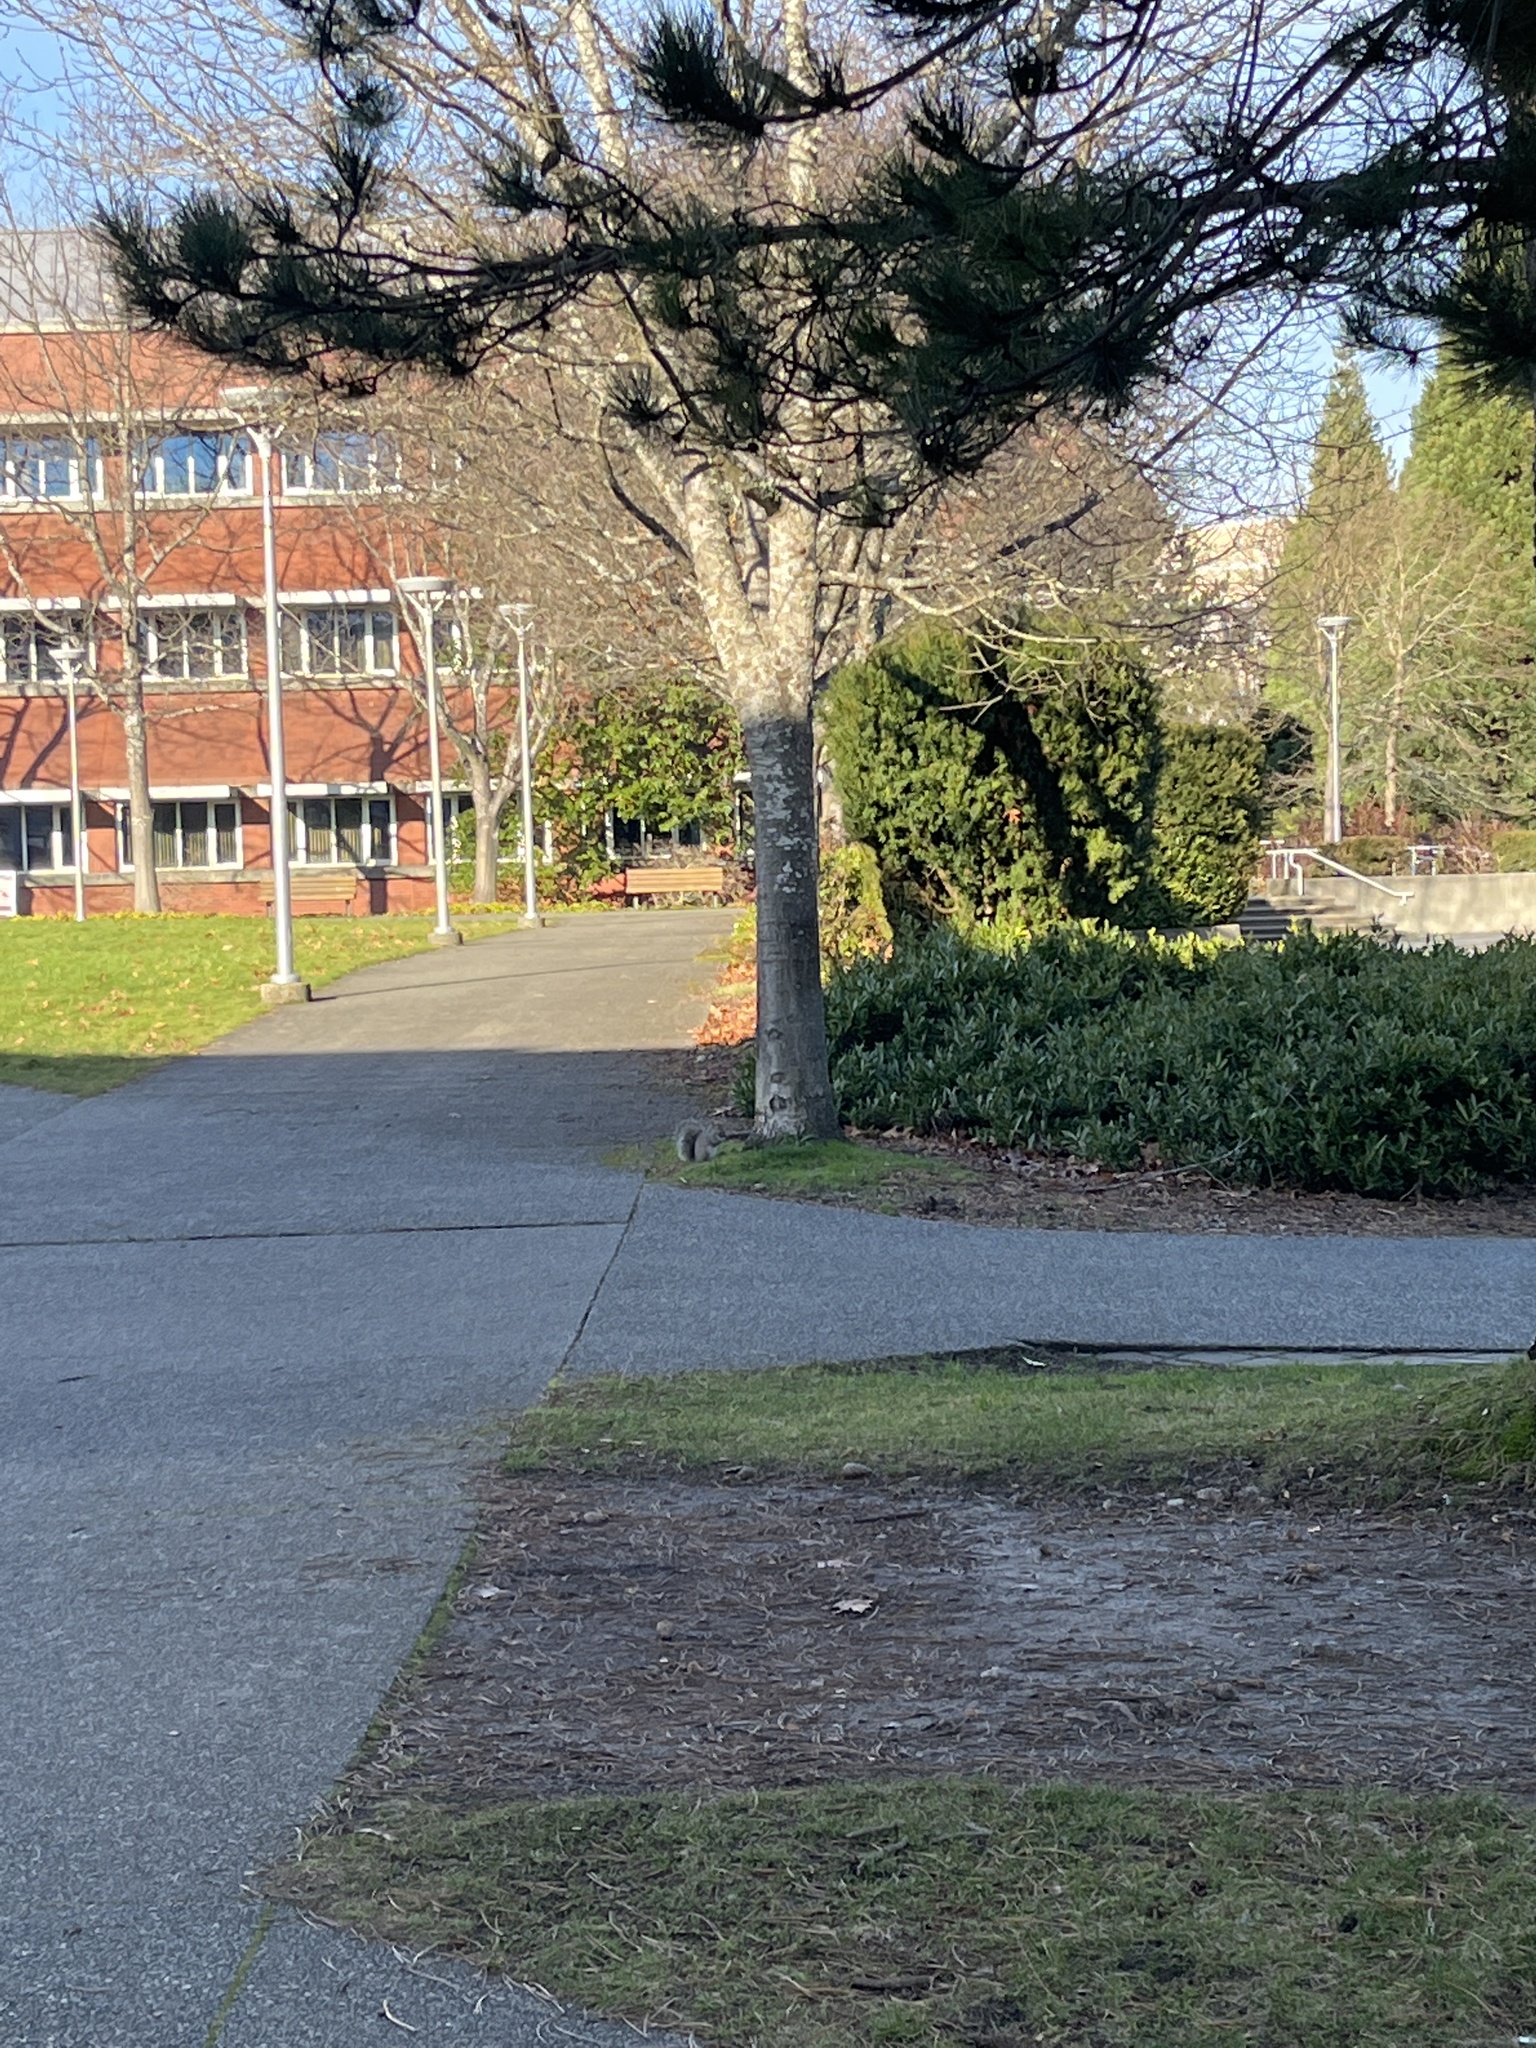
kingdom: Animalia
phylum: Chordata
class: Mammalia
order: Rodentia
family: Sciuridae
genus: Sciurus
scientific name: Sciurus carolinensis
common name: Eastern gray squirrel
